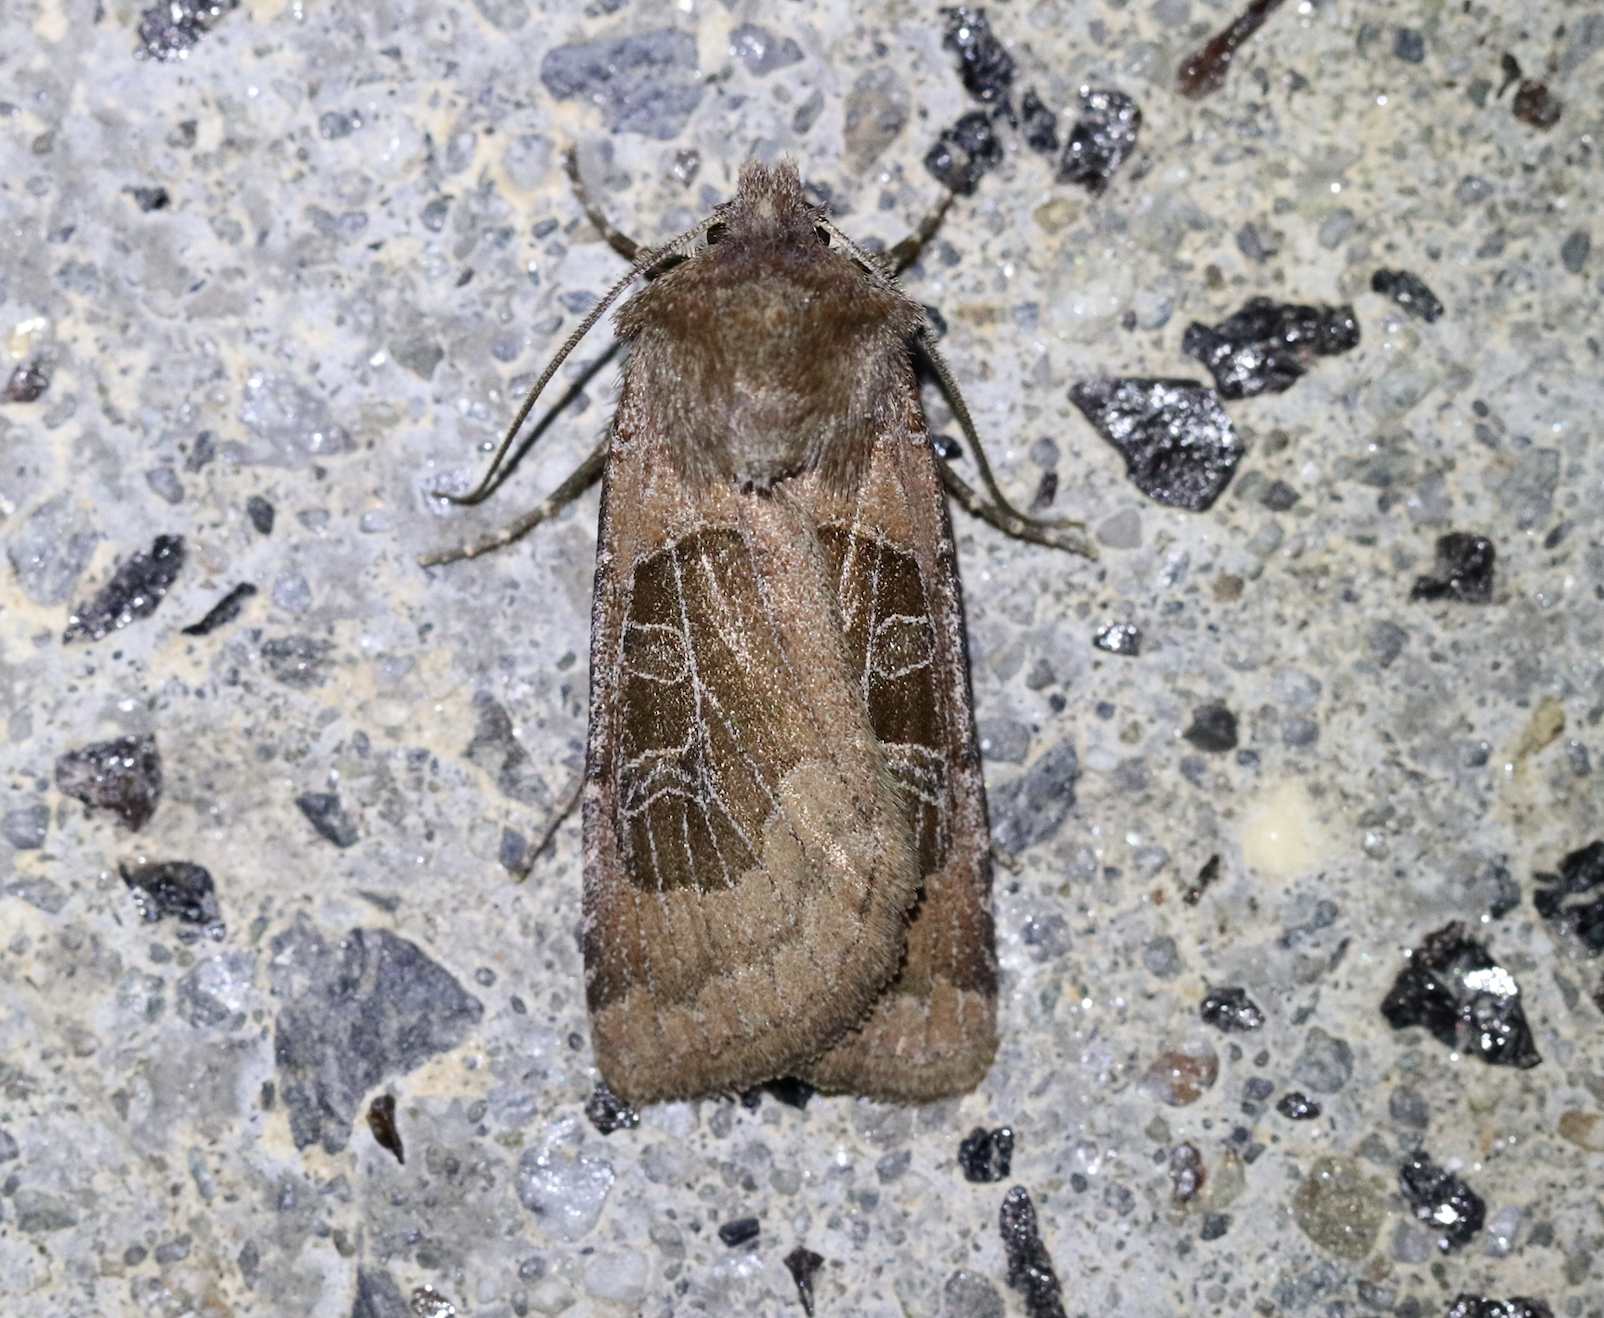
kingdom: Animalia
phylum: Arthropoda
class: Insecta
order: Lepidoptera
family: Noctuidae
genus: Chersotis
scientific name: Chersotis cuprea
